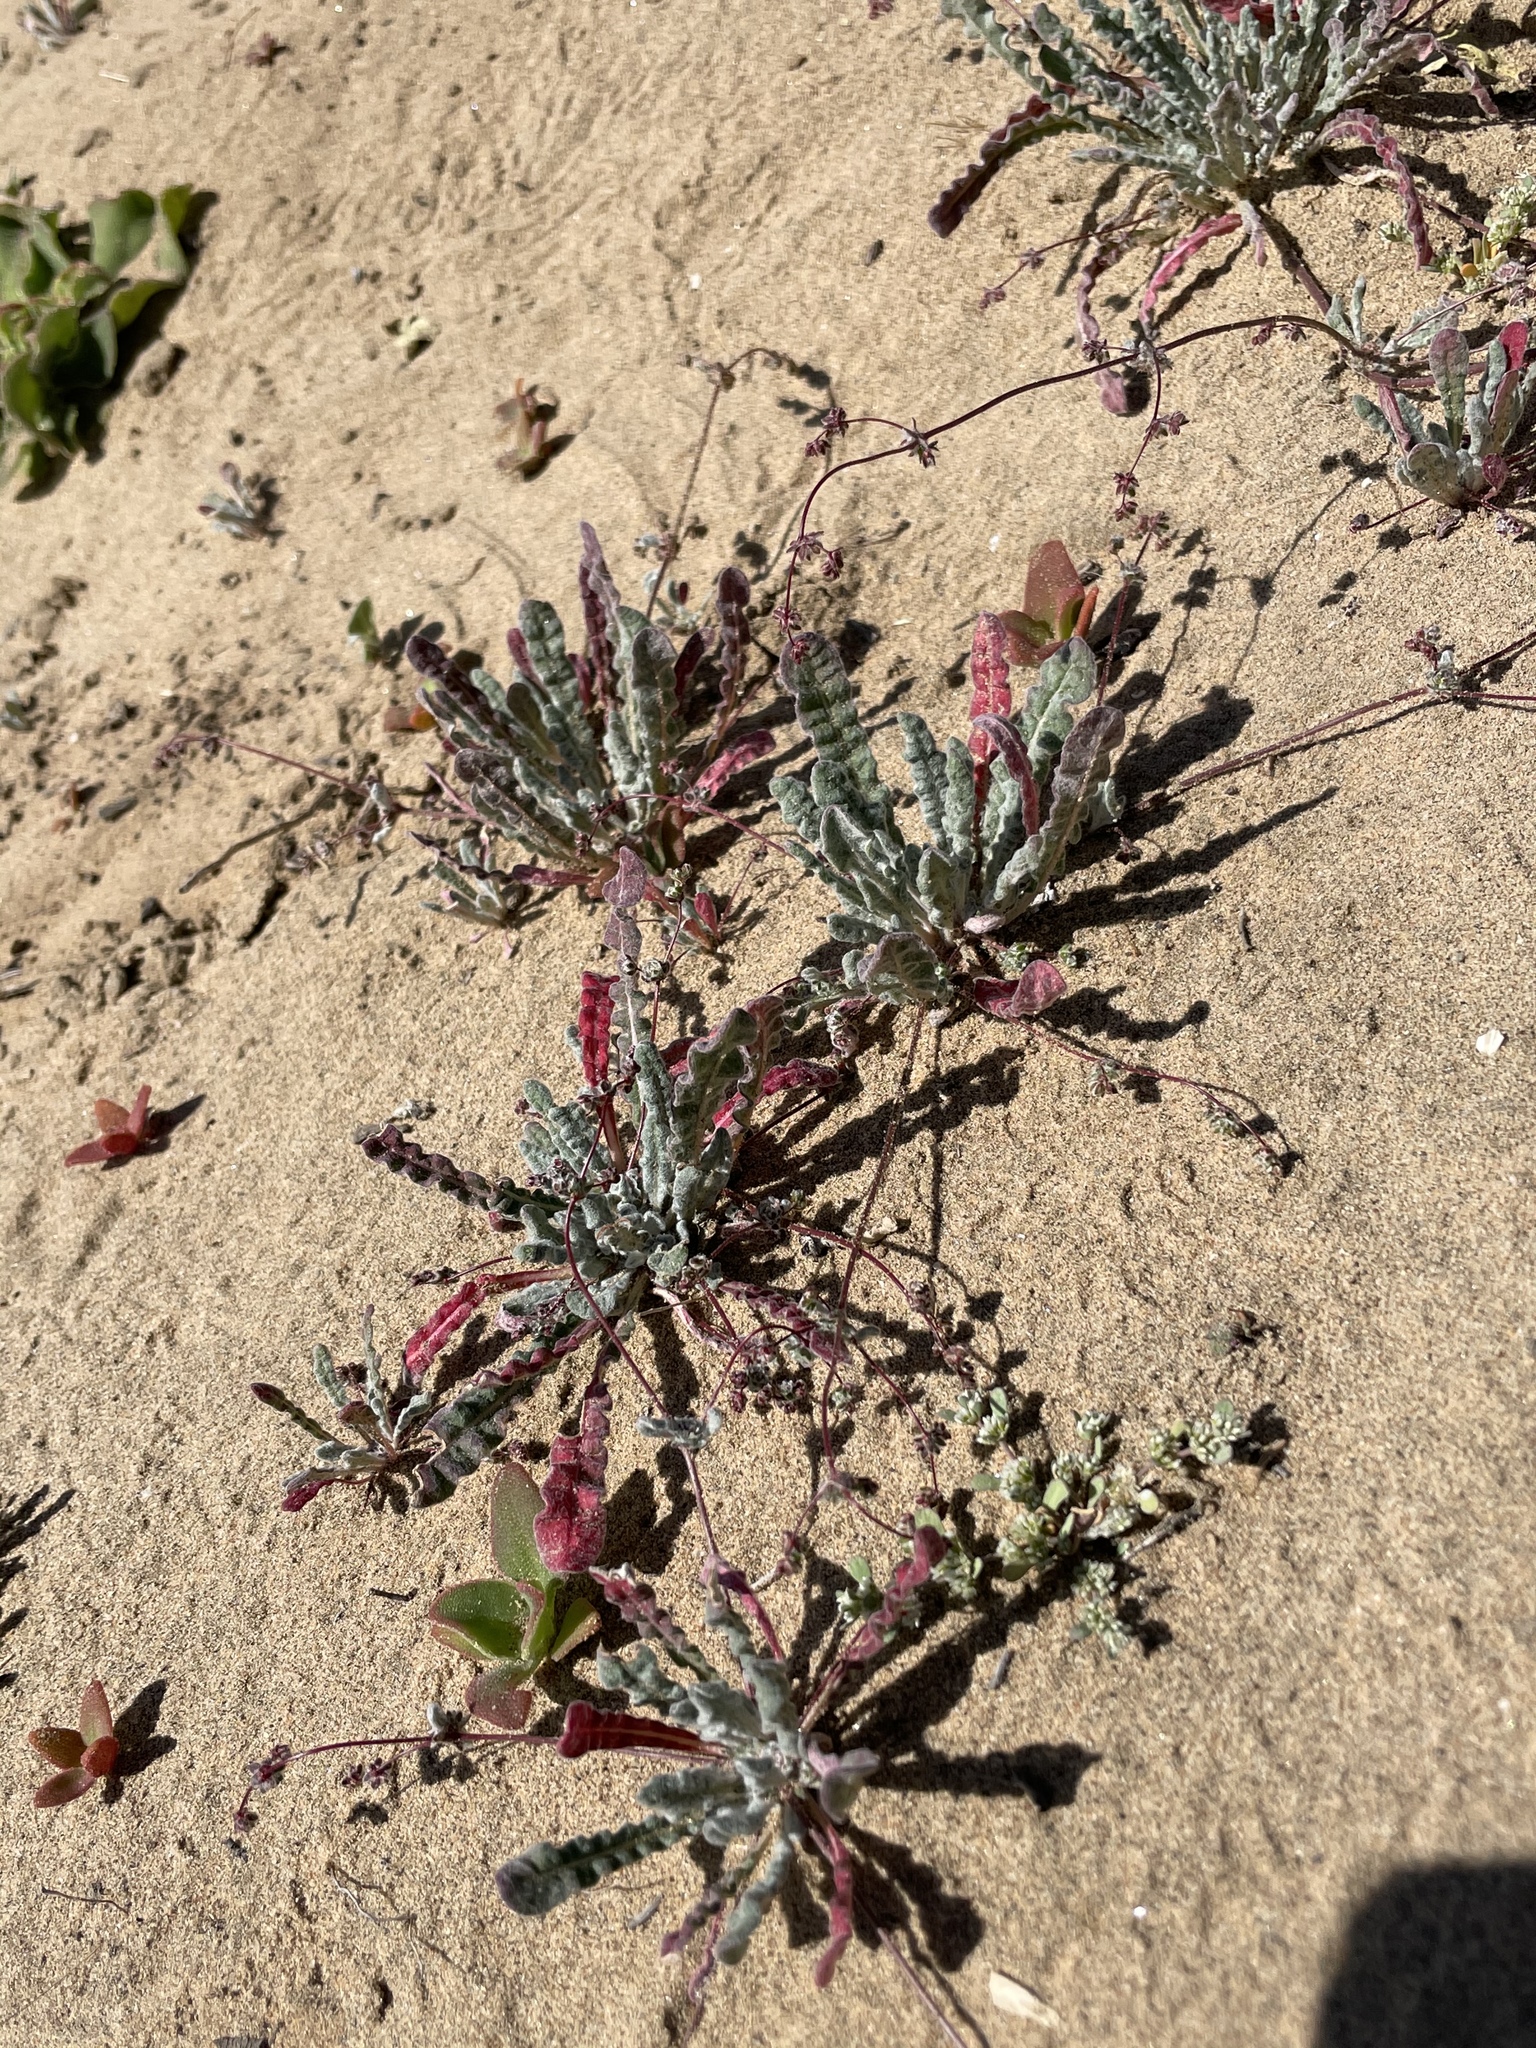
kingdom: Plantae
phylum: Tracheophyta
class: Magnoliopsida
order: Caryophyllales
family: Polygonaceae
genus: Nemacaulis
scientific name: Nemacaulis denudata
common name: Woolly-heads
